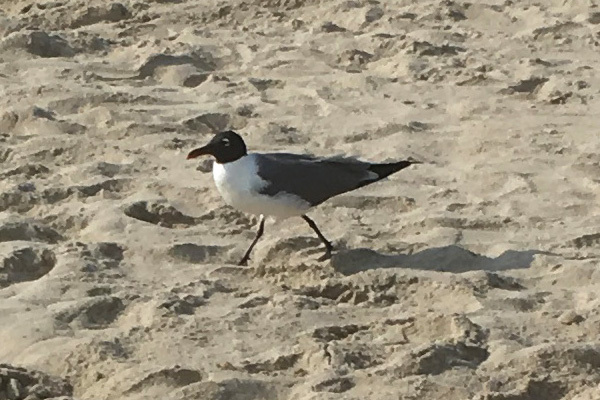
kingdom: Animalia
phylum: Chordata
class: Aves
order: Charadriiformes
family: Laridae
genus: Leucophaeus
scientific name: Leucophaeus atricilla
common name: Laughing gull
